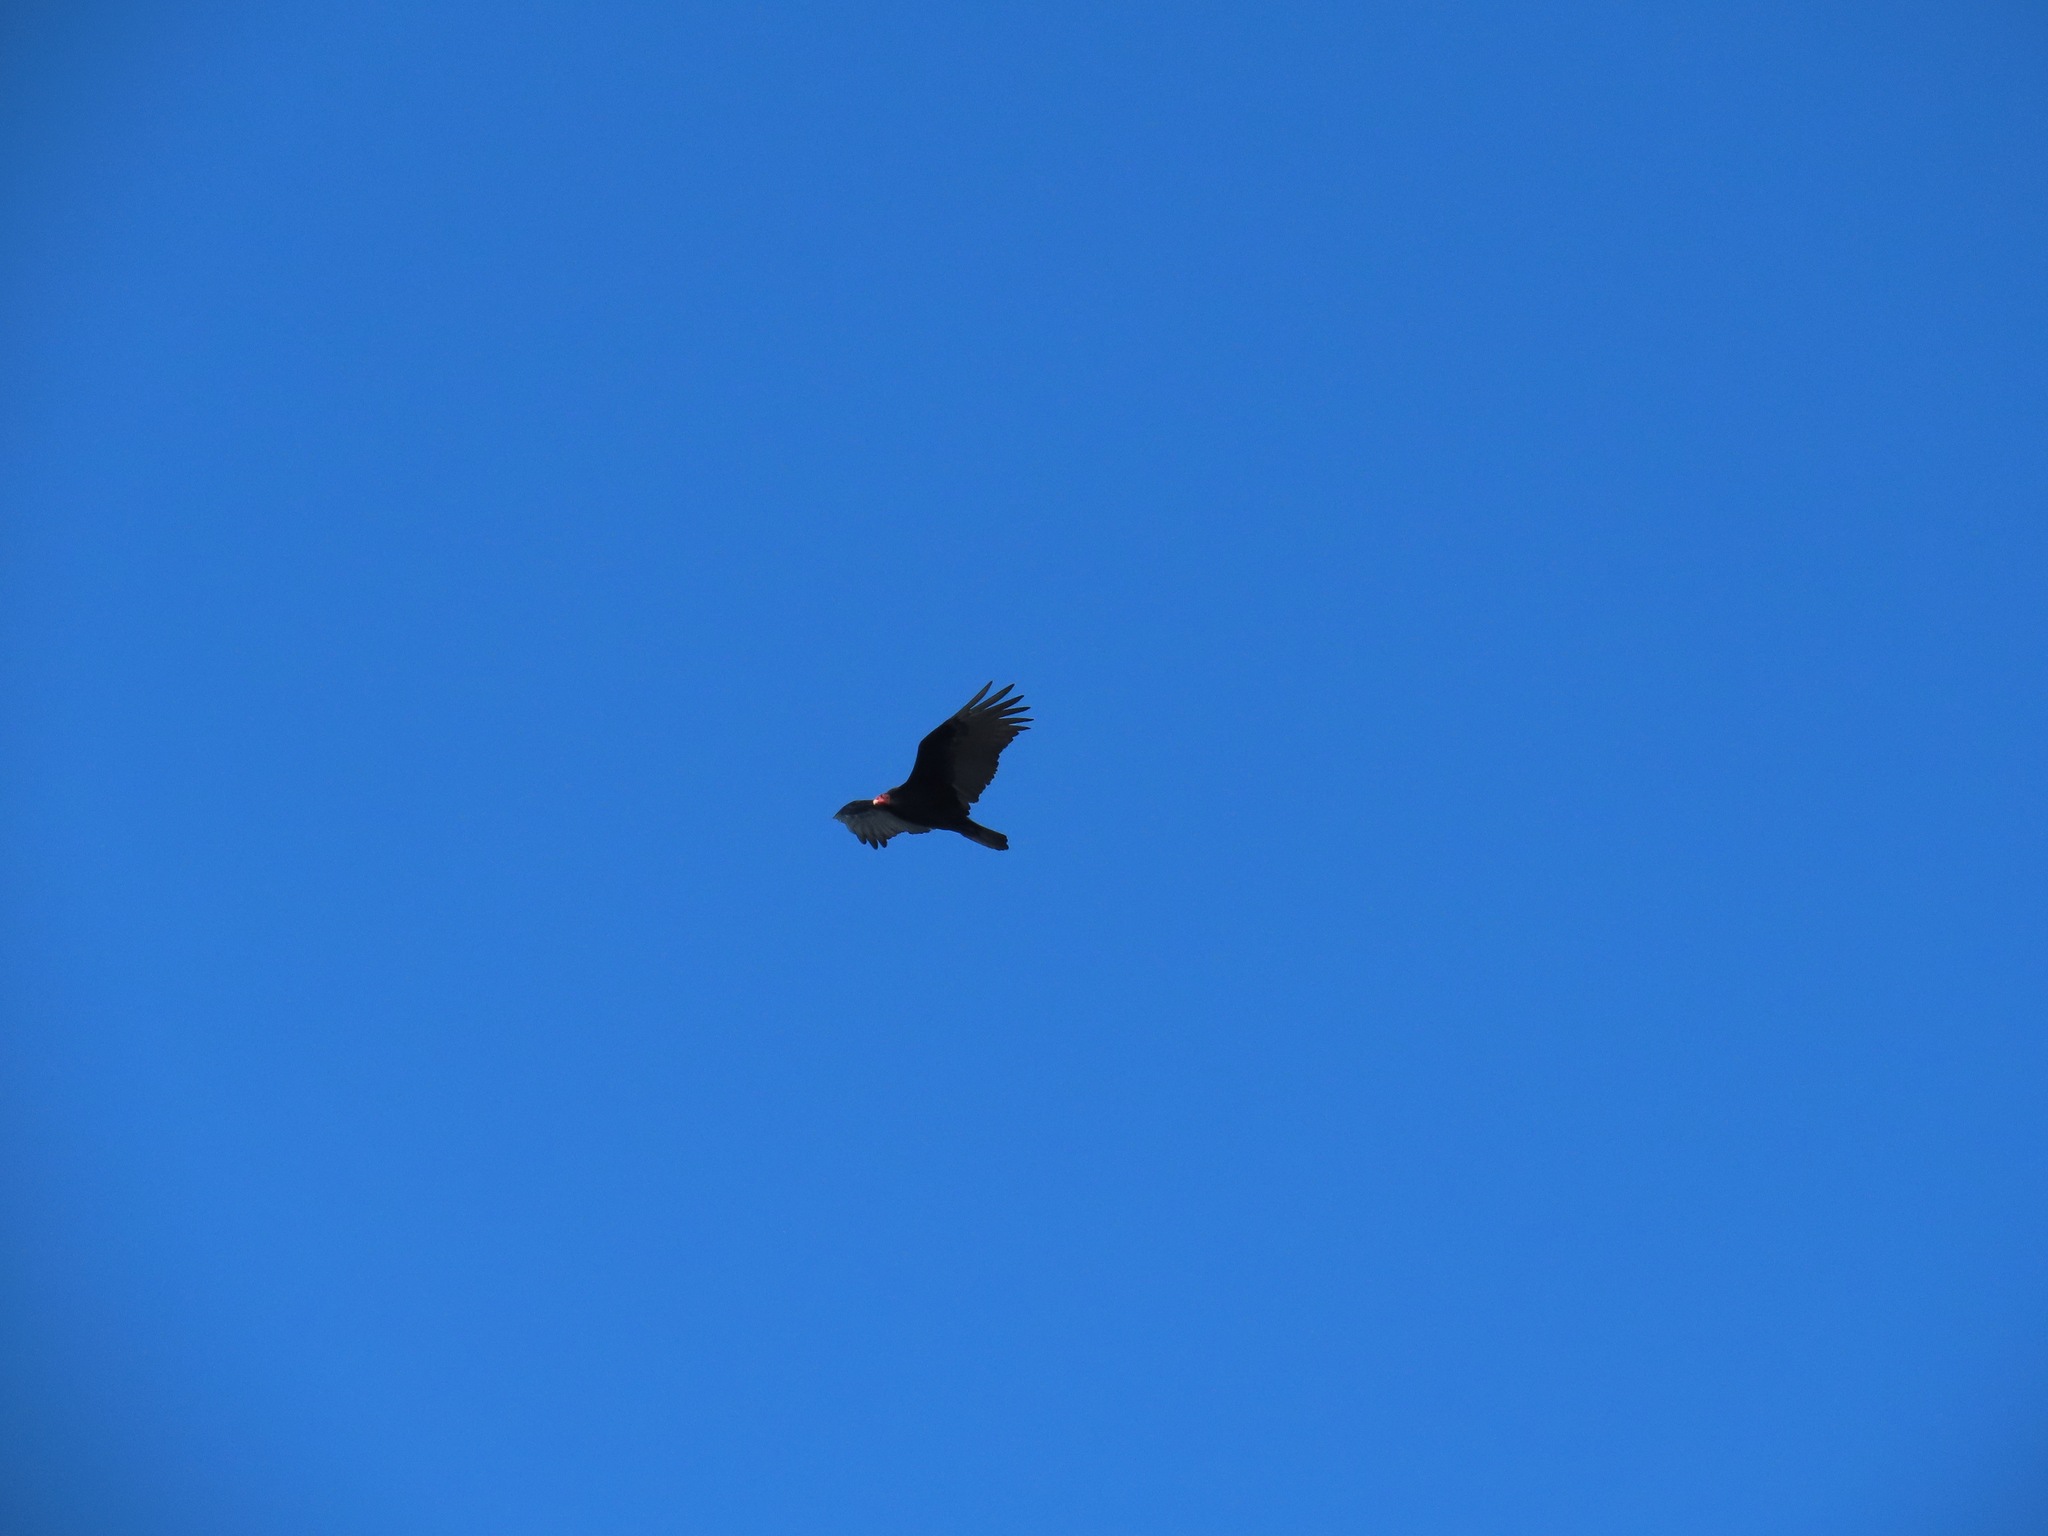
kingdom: Animalia
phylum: Chordata
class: Aves
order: Accipitriformes
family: Cathartidae
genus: Cathartes
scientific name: Cathartes aura
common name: Turkey vulture
